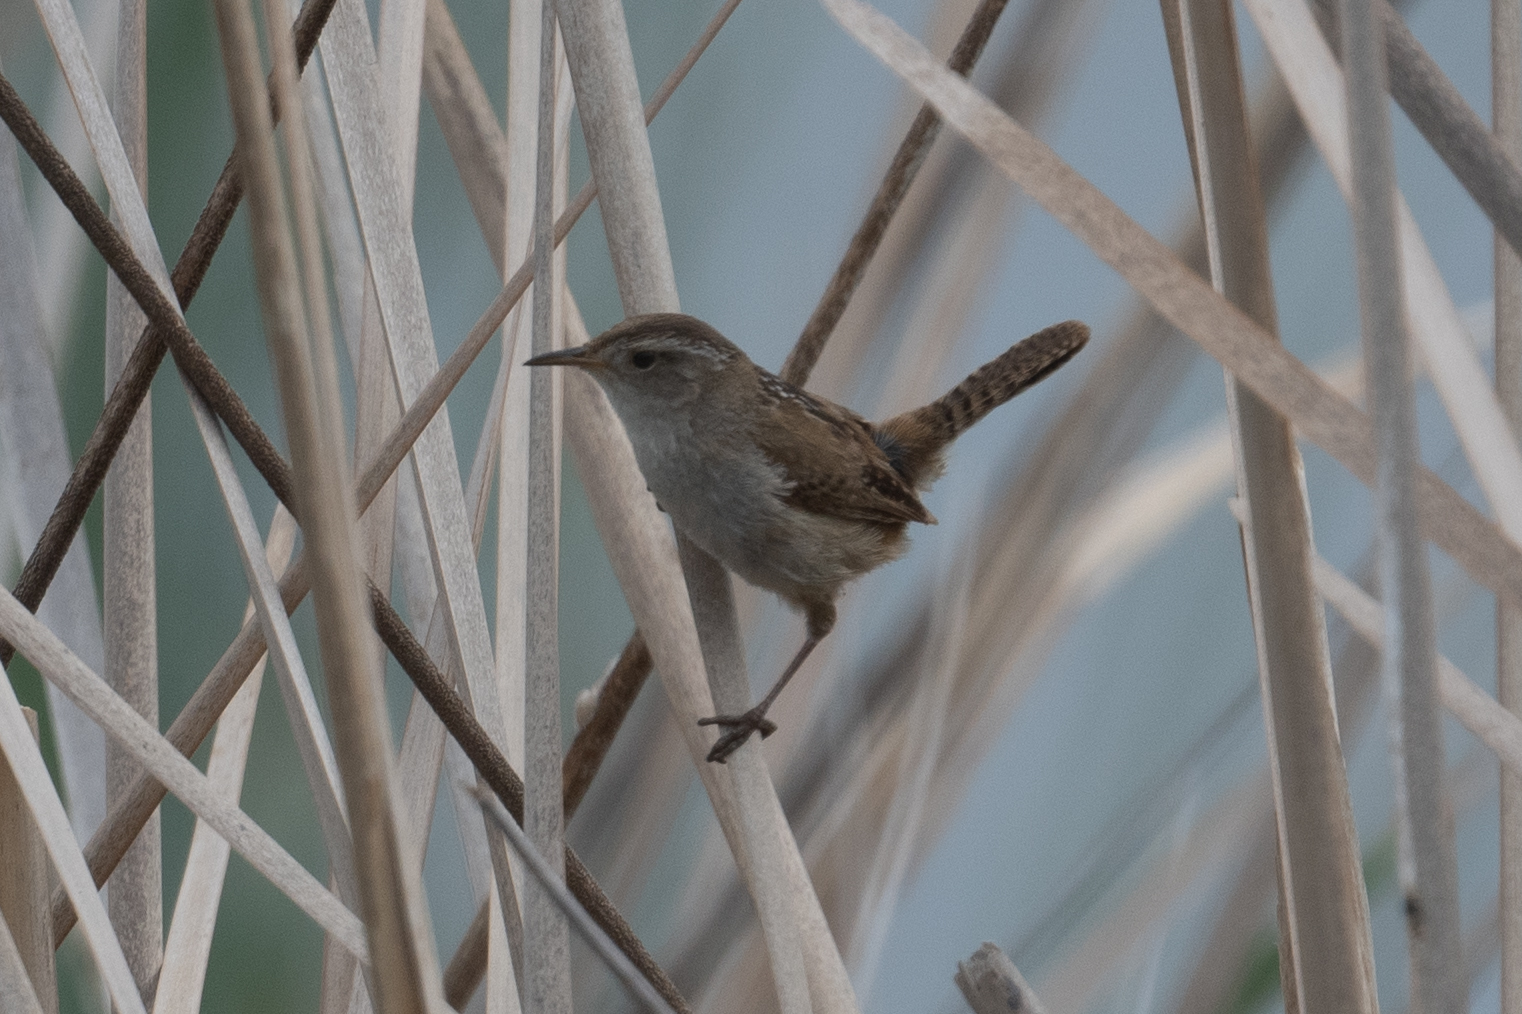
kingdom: Animalia
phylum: Chordata
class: Aves
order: Passeriformes
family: Troglodytidae
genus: Cistothorus
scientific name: Cistothorus palustris
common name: Marsh wren
